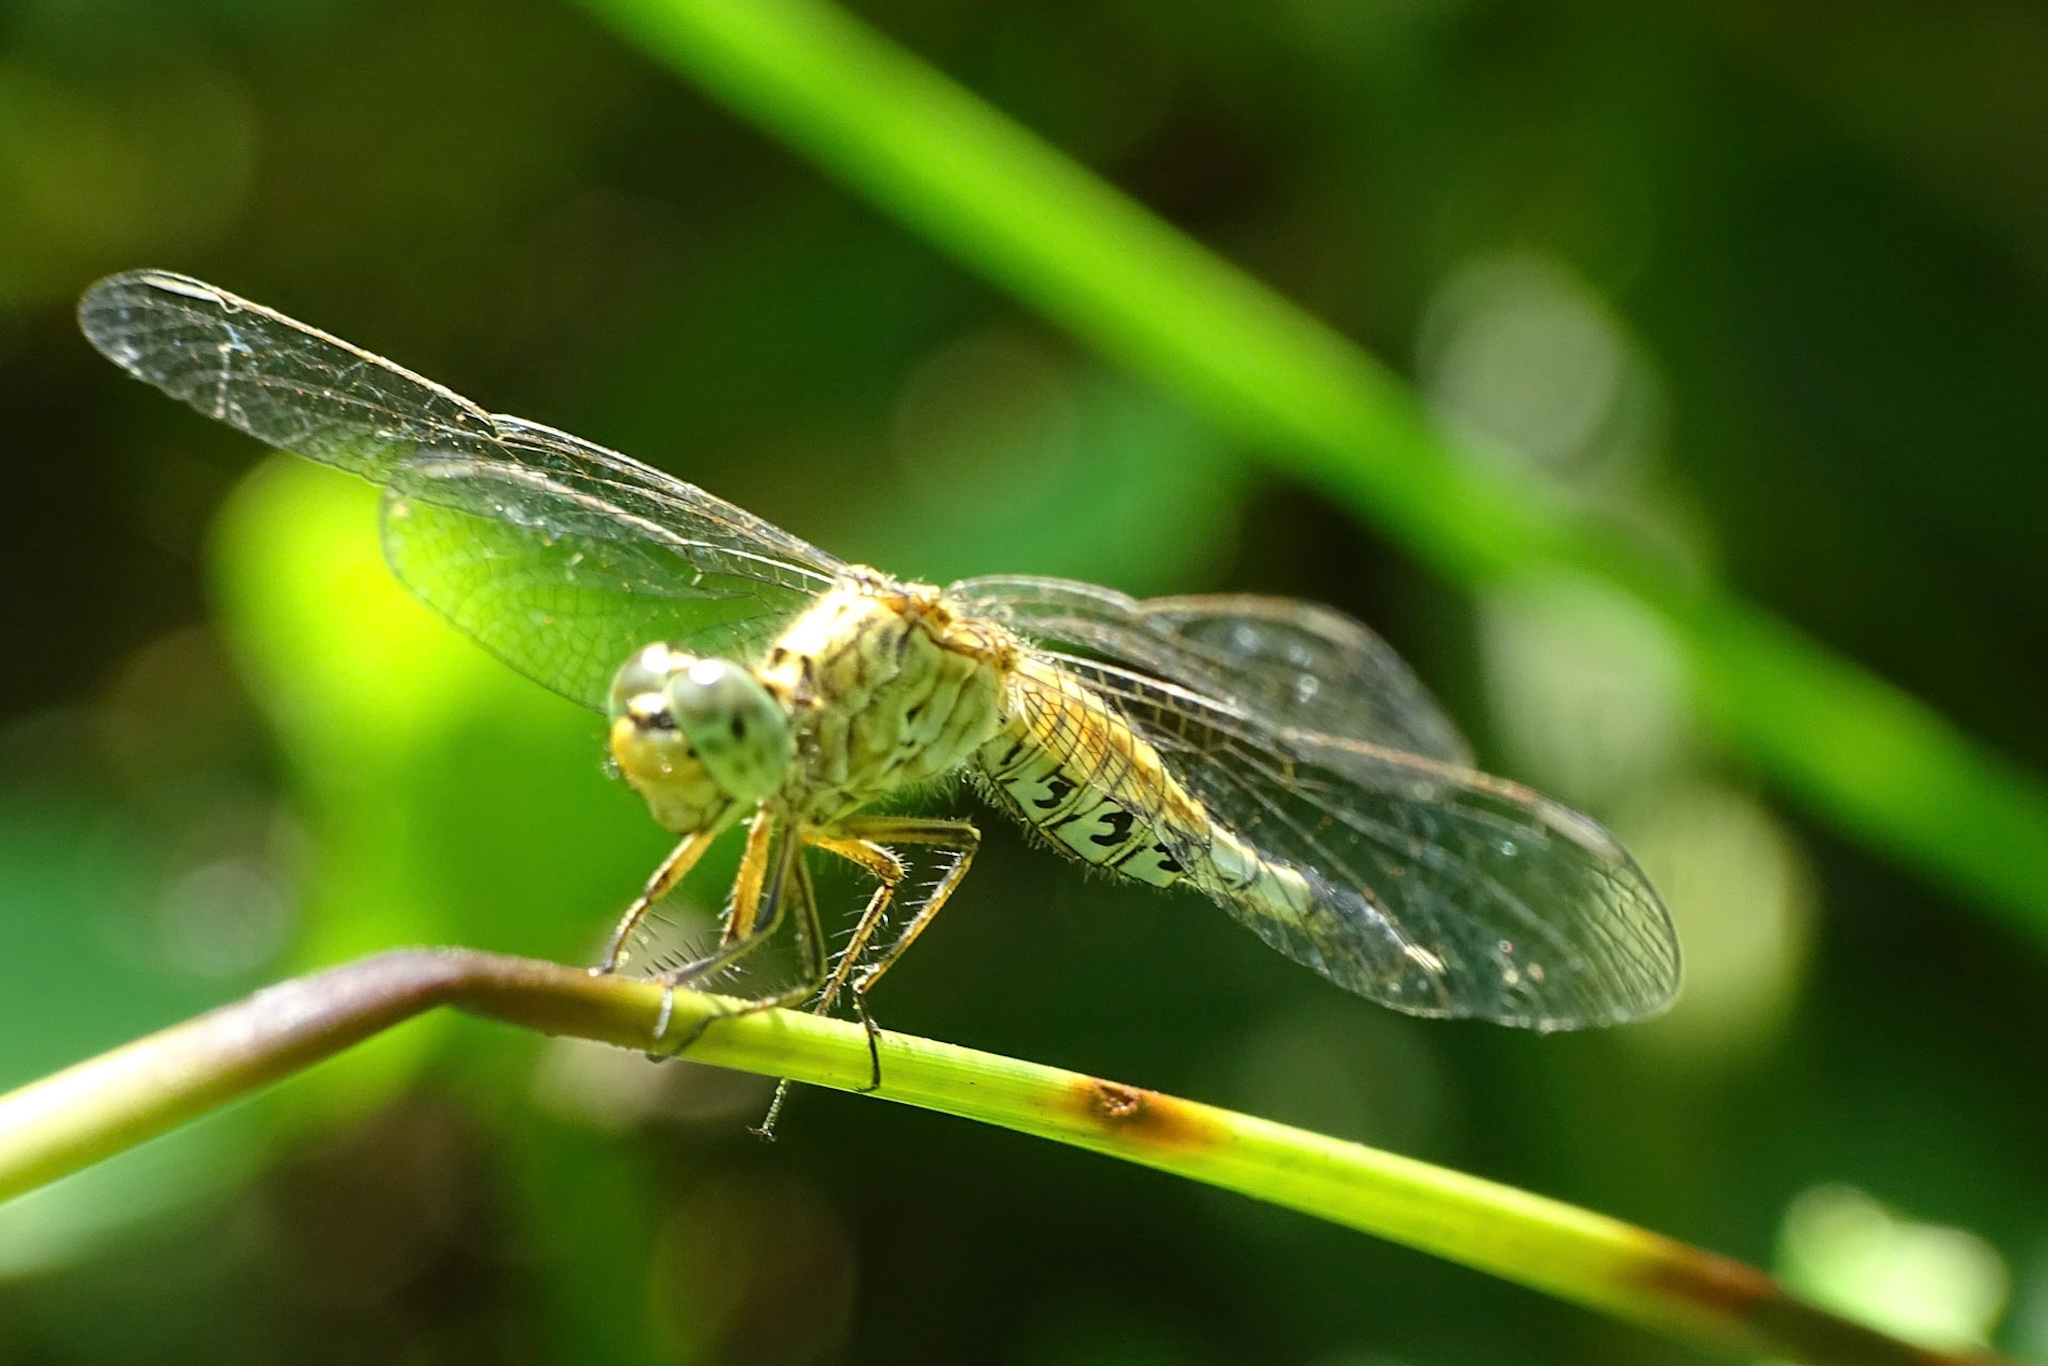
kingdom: Animalia
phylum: Arthropoda
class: Insecta
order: Odonata
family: Libellulidae
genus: Acisoma
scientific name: Acisoma panorpoides
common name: Asian pintail
